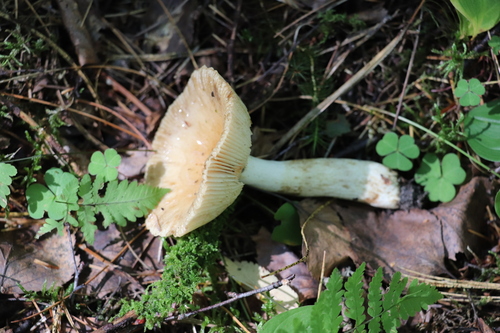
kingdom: Fungi
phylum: Basidiomycota
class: Agaricomycetes
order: Russulales
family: Russulaceae
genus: Russula
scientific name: Russula foetens
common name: Foetid russula
